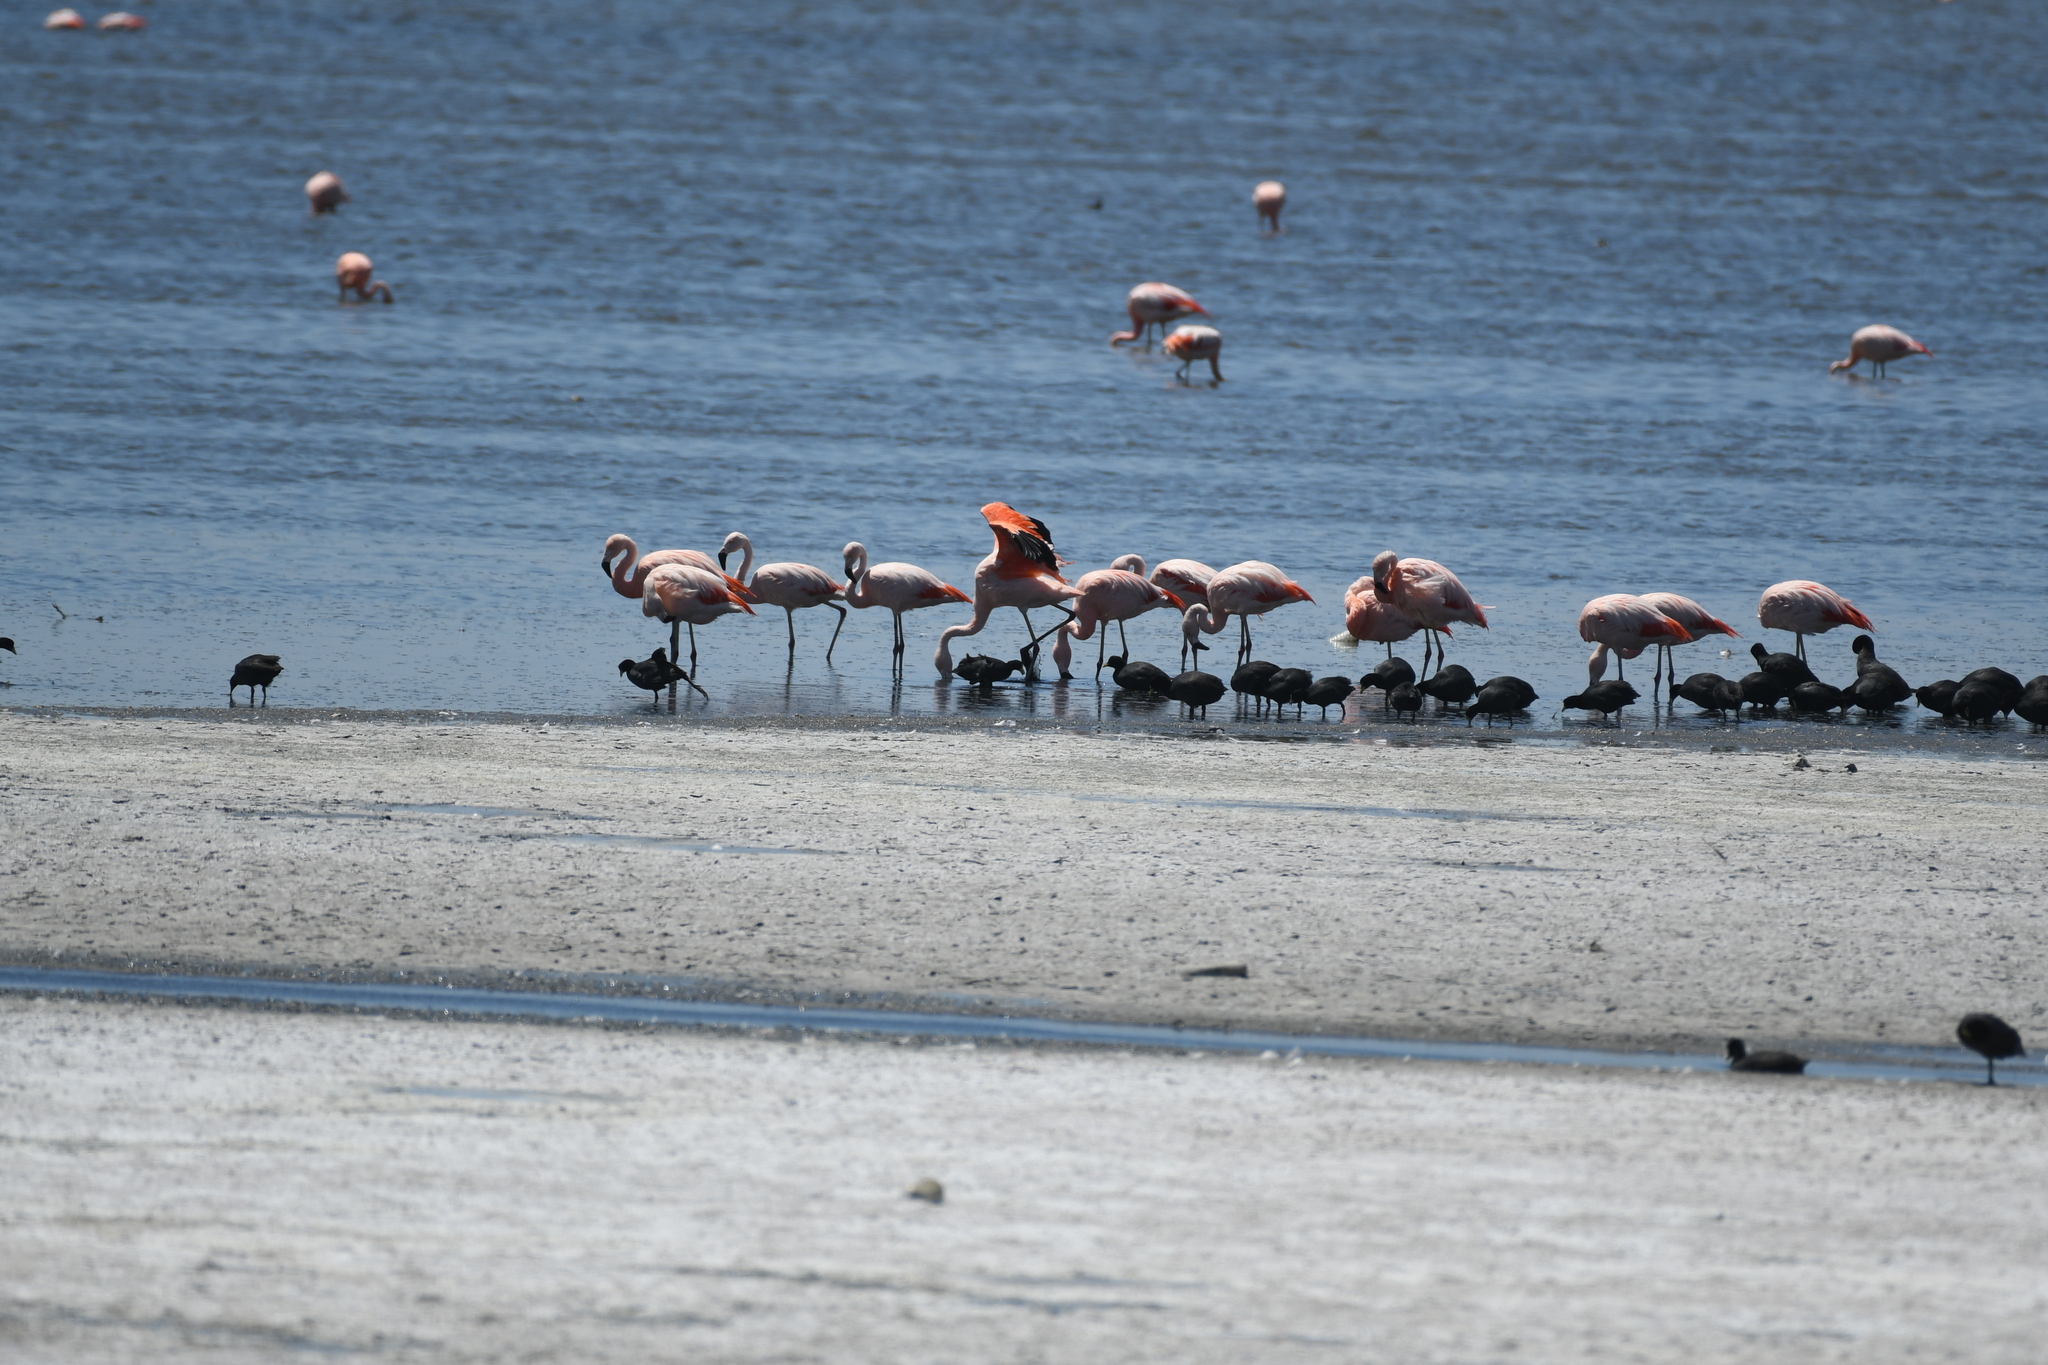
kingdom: Animalia
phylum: Chordata
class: Aves
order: Phoenicopteriformes
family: Phoenicopteridae
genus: Phoenicopterus
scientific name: Phoenicopterus chilensis
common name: Chilean flamingo
